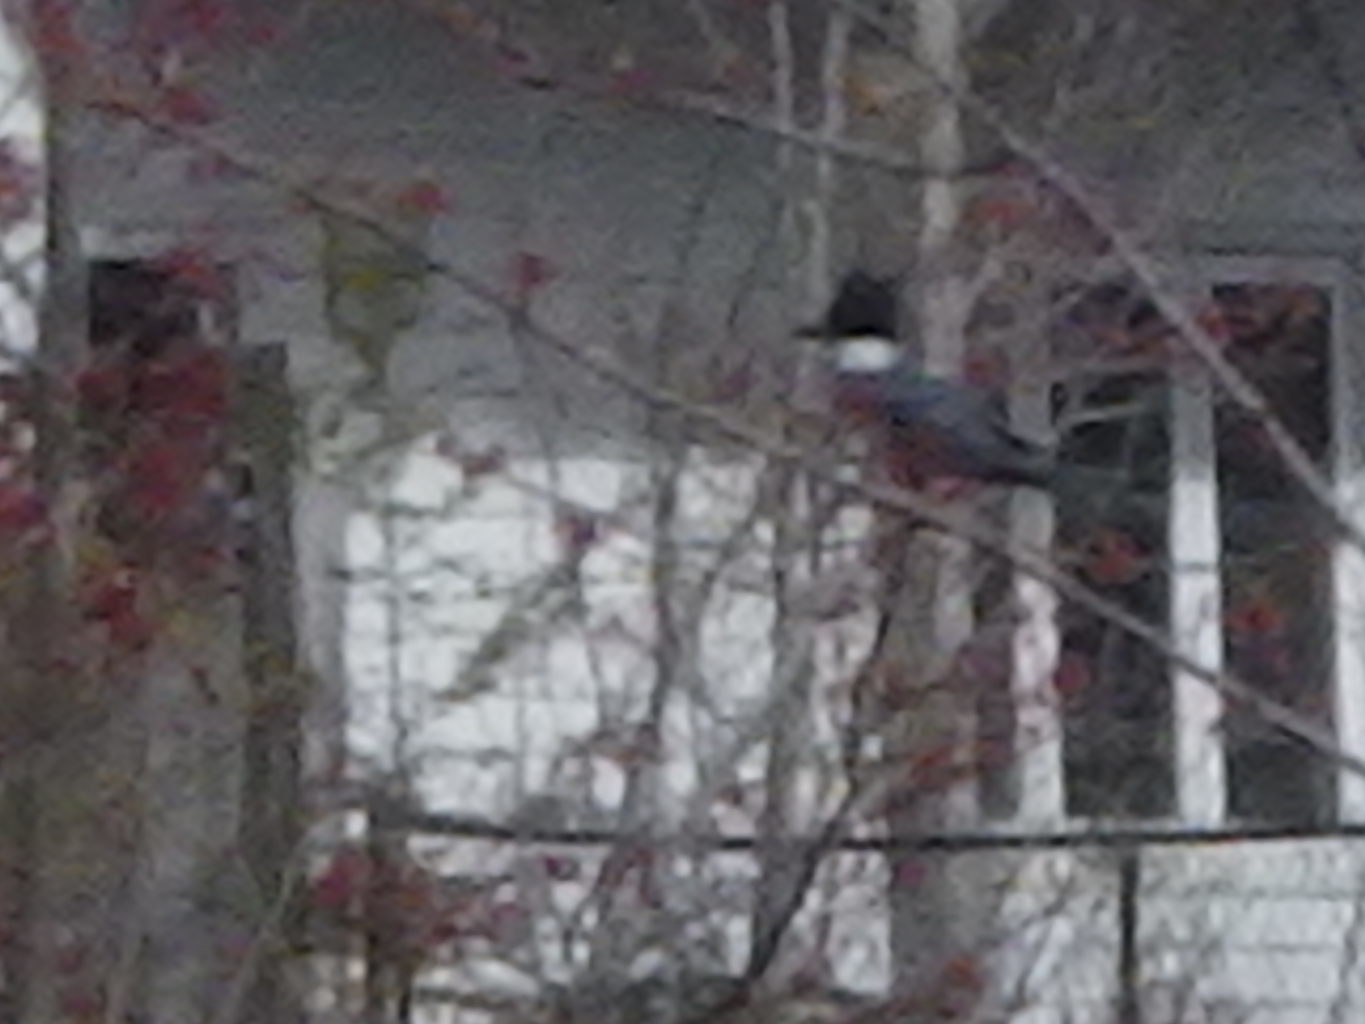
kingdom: Animalia
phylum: Chordata
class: Aves
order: Coraciiformes
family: Alcedinidae
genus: Megaceryle
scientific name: Megaceryle alcyon
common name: Belted kingfisher
